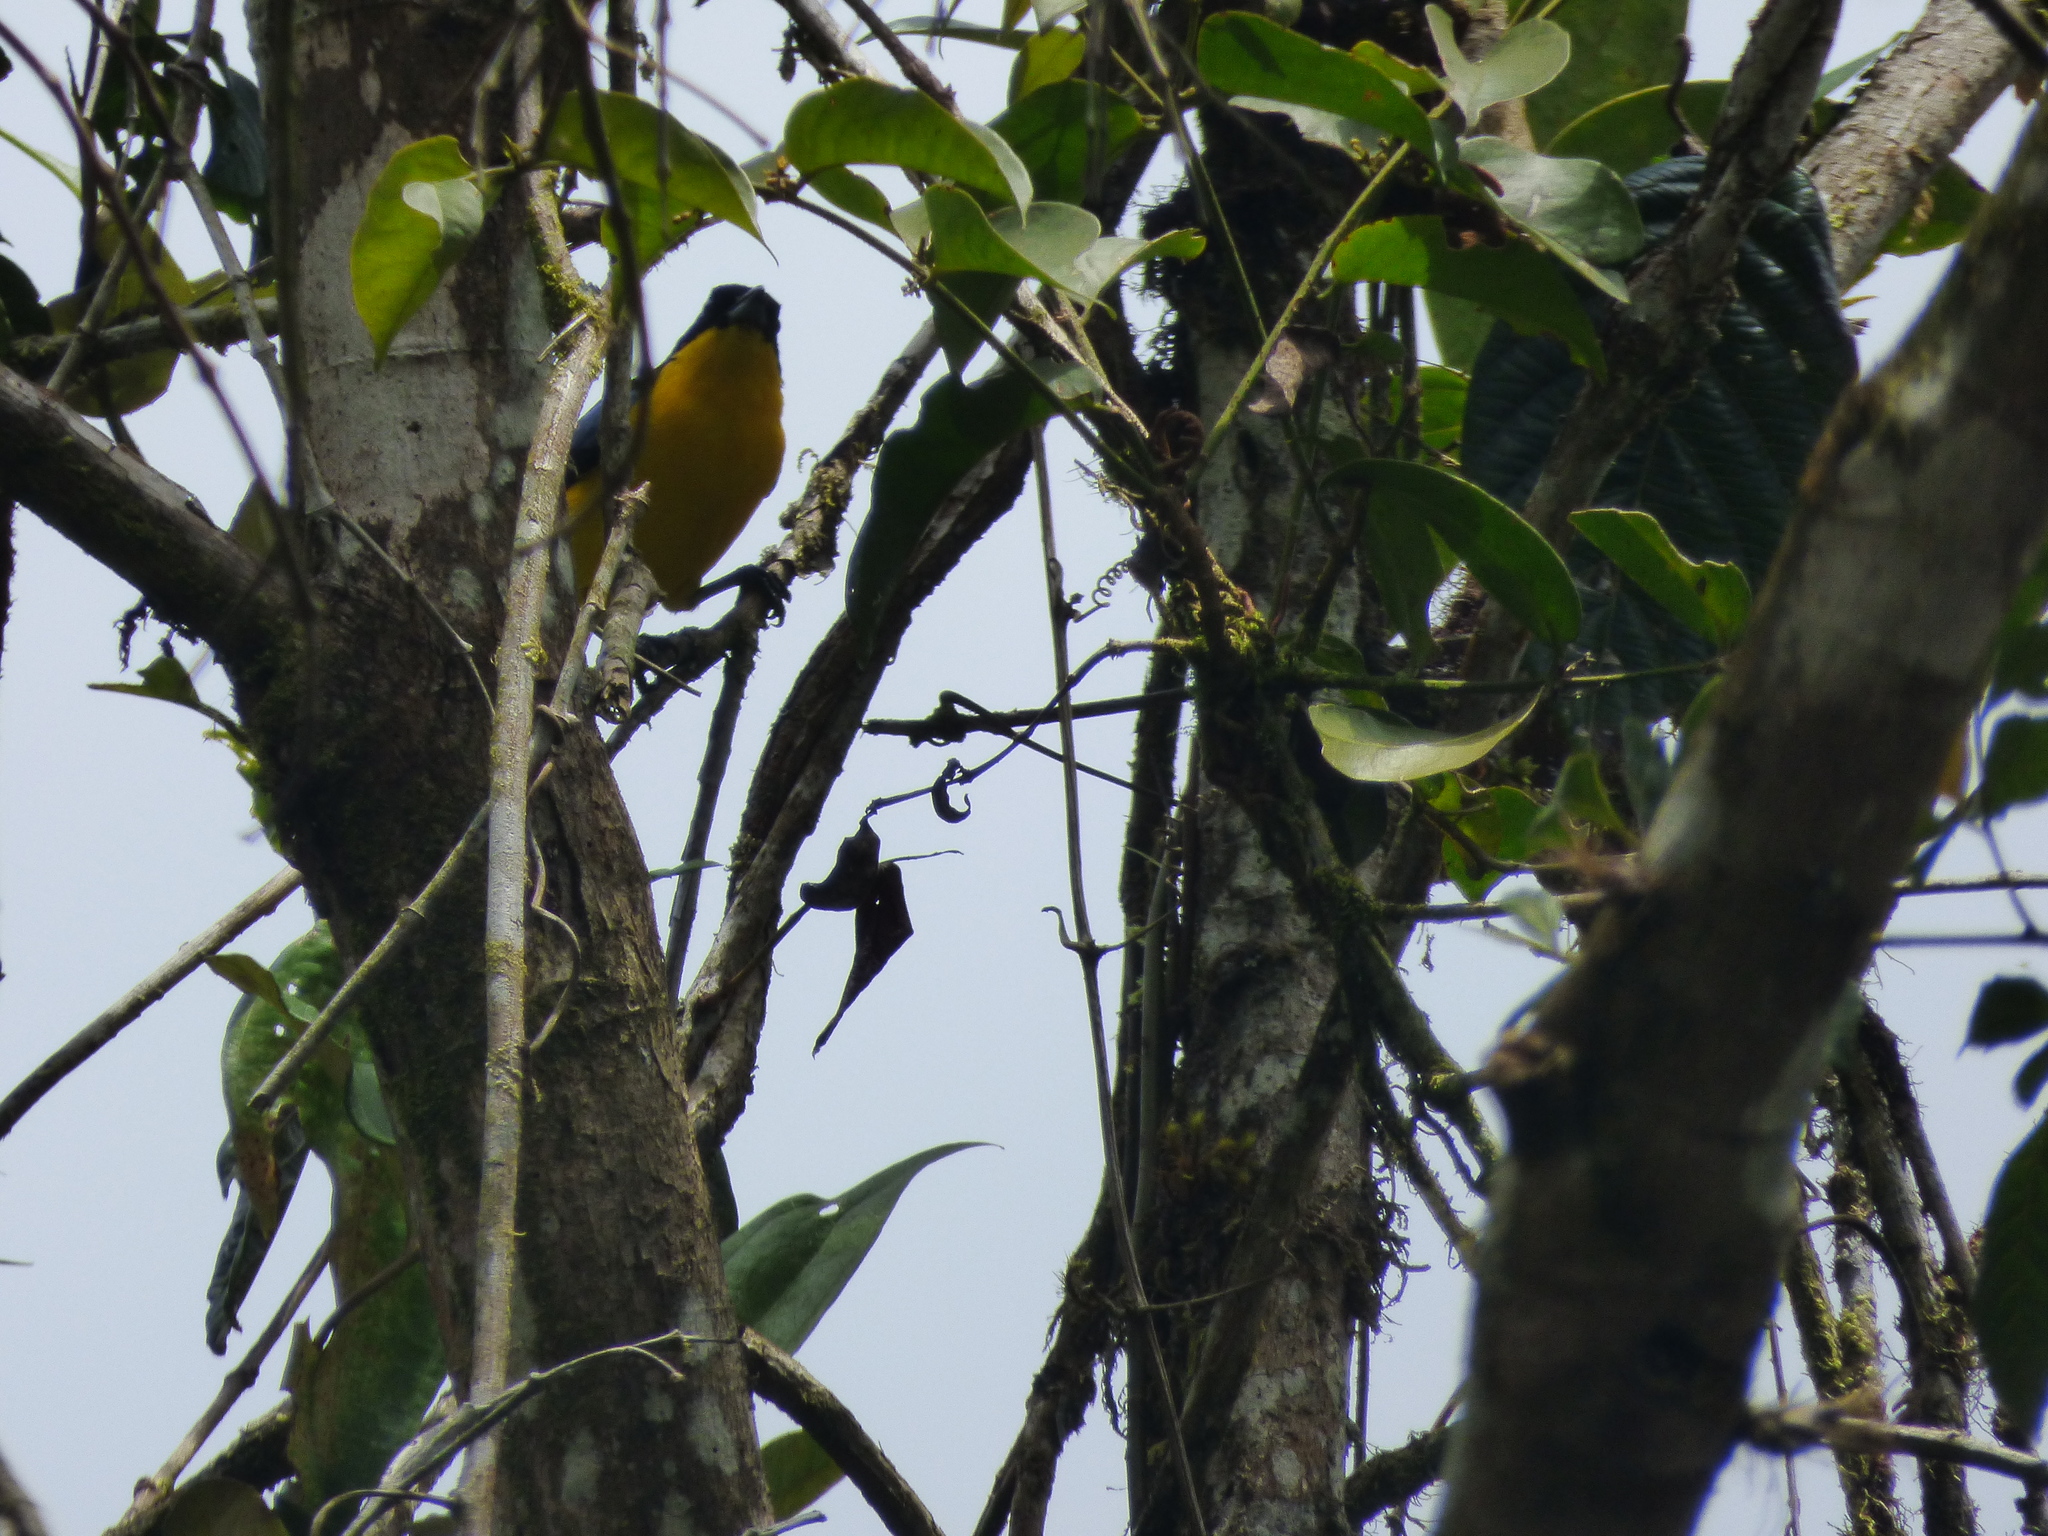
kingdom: Animalia
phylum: Chordata
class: Aves
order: Passeriformes
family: Thraupidae
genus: Anisognathus
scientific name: Anisognathus somptuosus
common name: Blue-winged mountain-tanager
